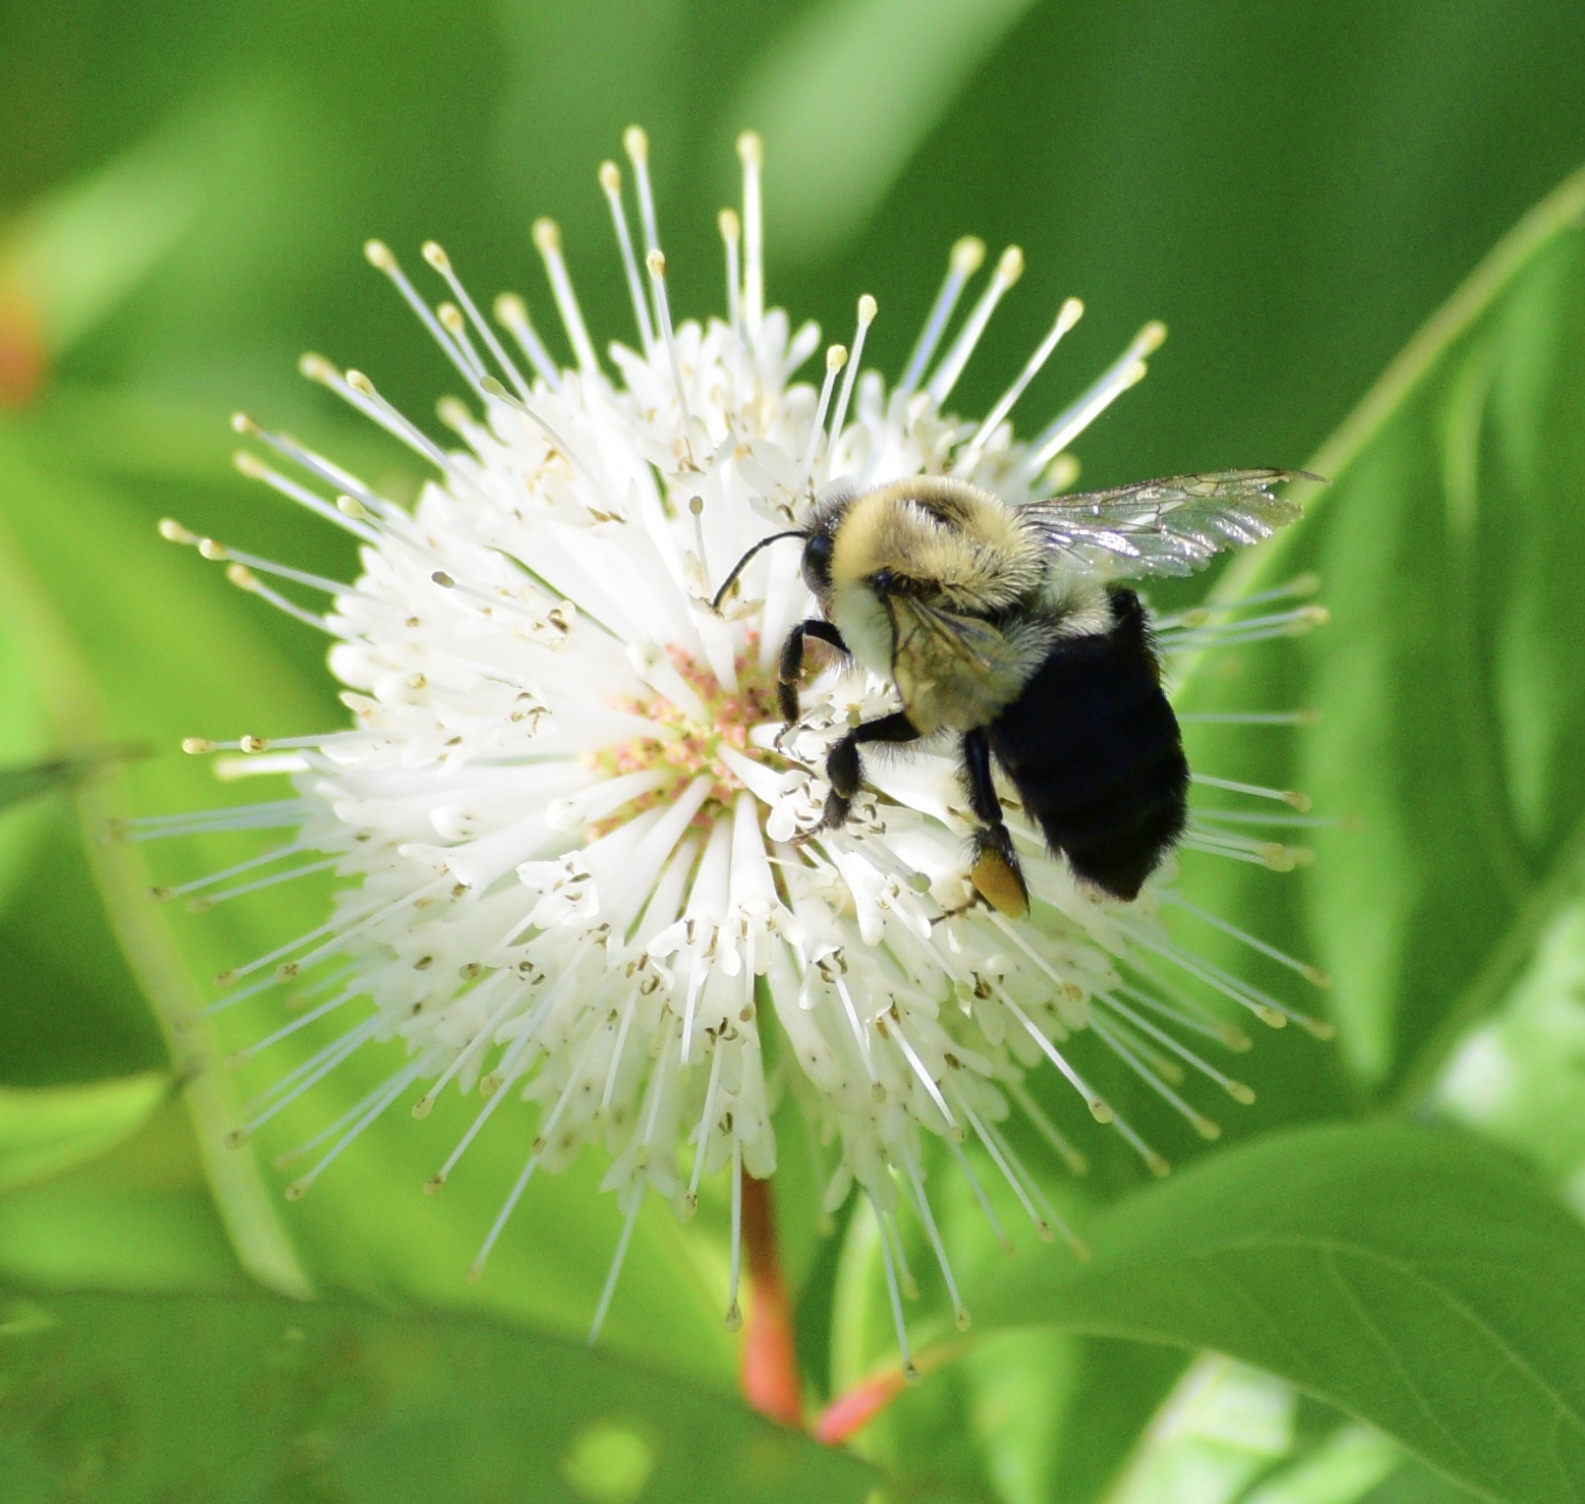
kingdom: Animalia
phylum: Arthropoda
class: Insecta
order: Hymenoptera
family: Apidae
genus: Bombus
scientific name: Bombus impatiens
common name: Common eastern bumble bee
